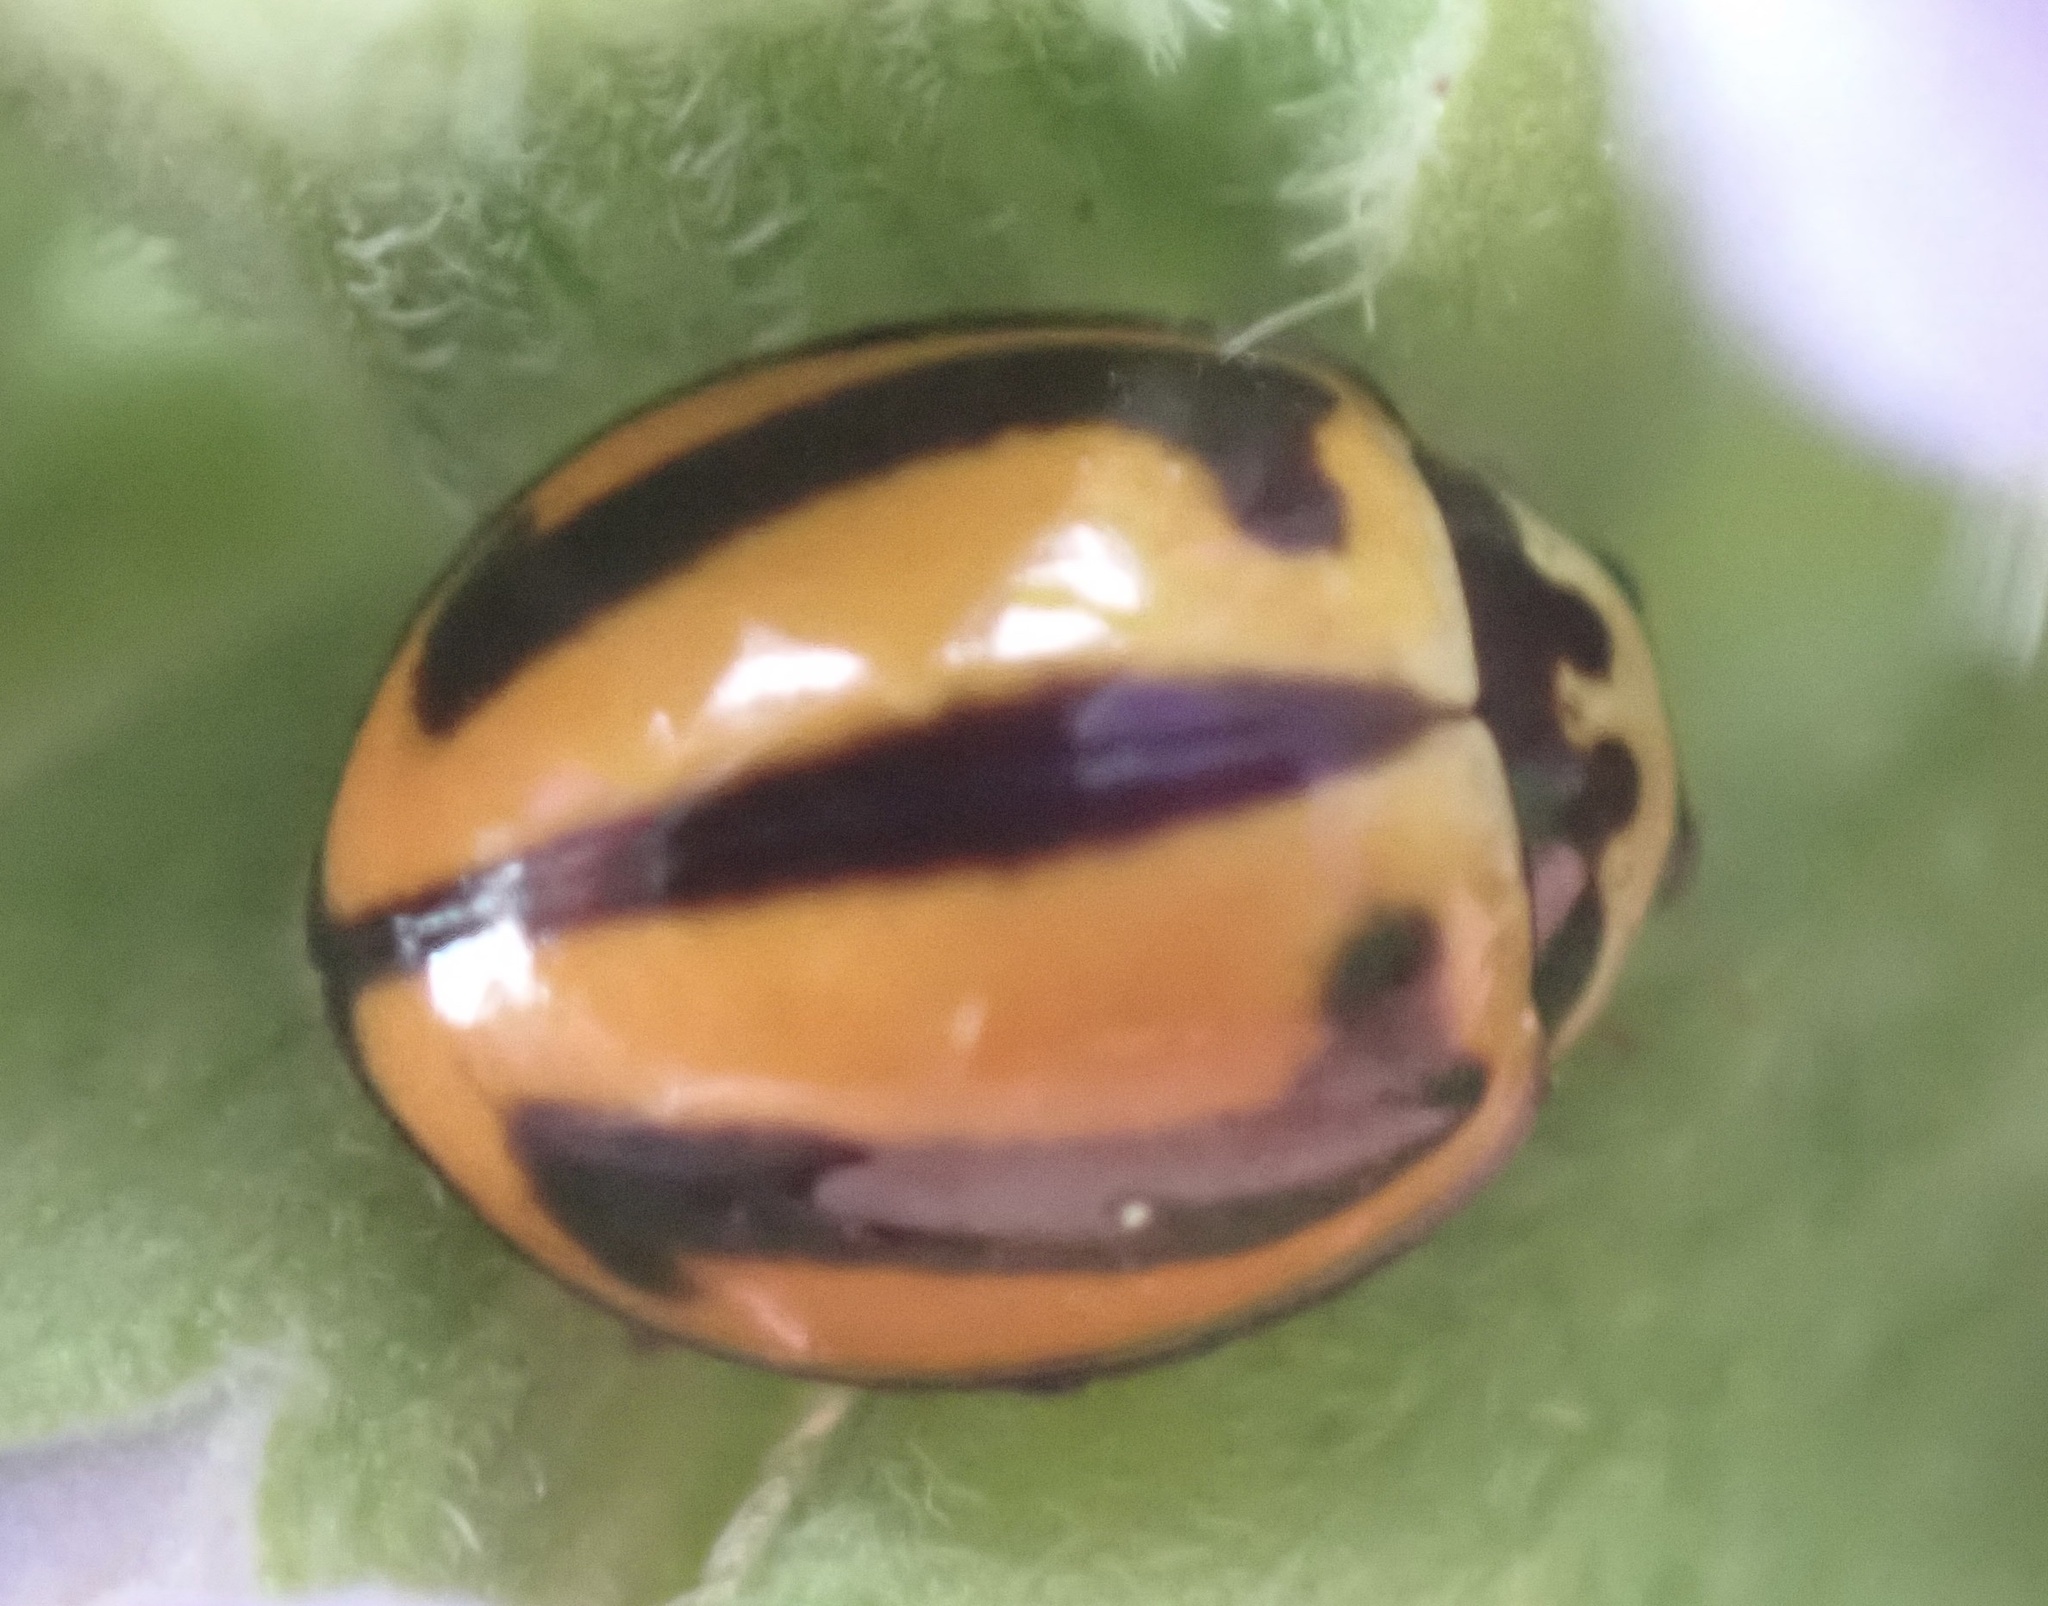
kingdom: Animalia
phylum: Arthropoda
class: Insecta
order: Coleoptera
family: Coccinellidae
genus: Micraspis
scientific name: Micraspis frenata
